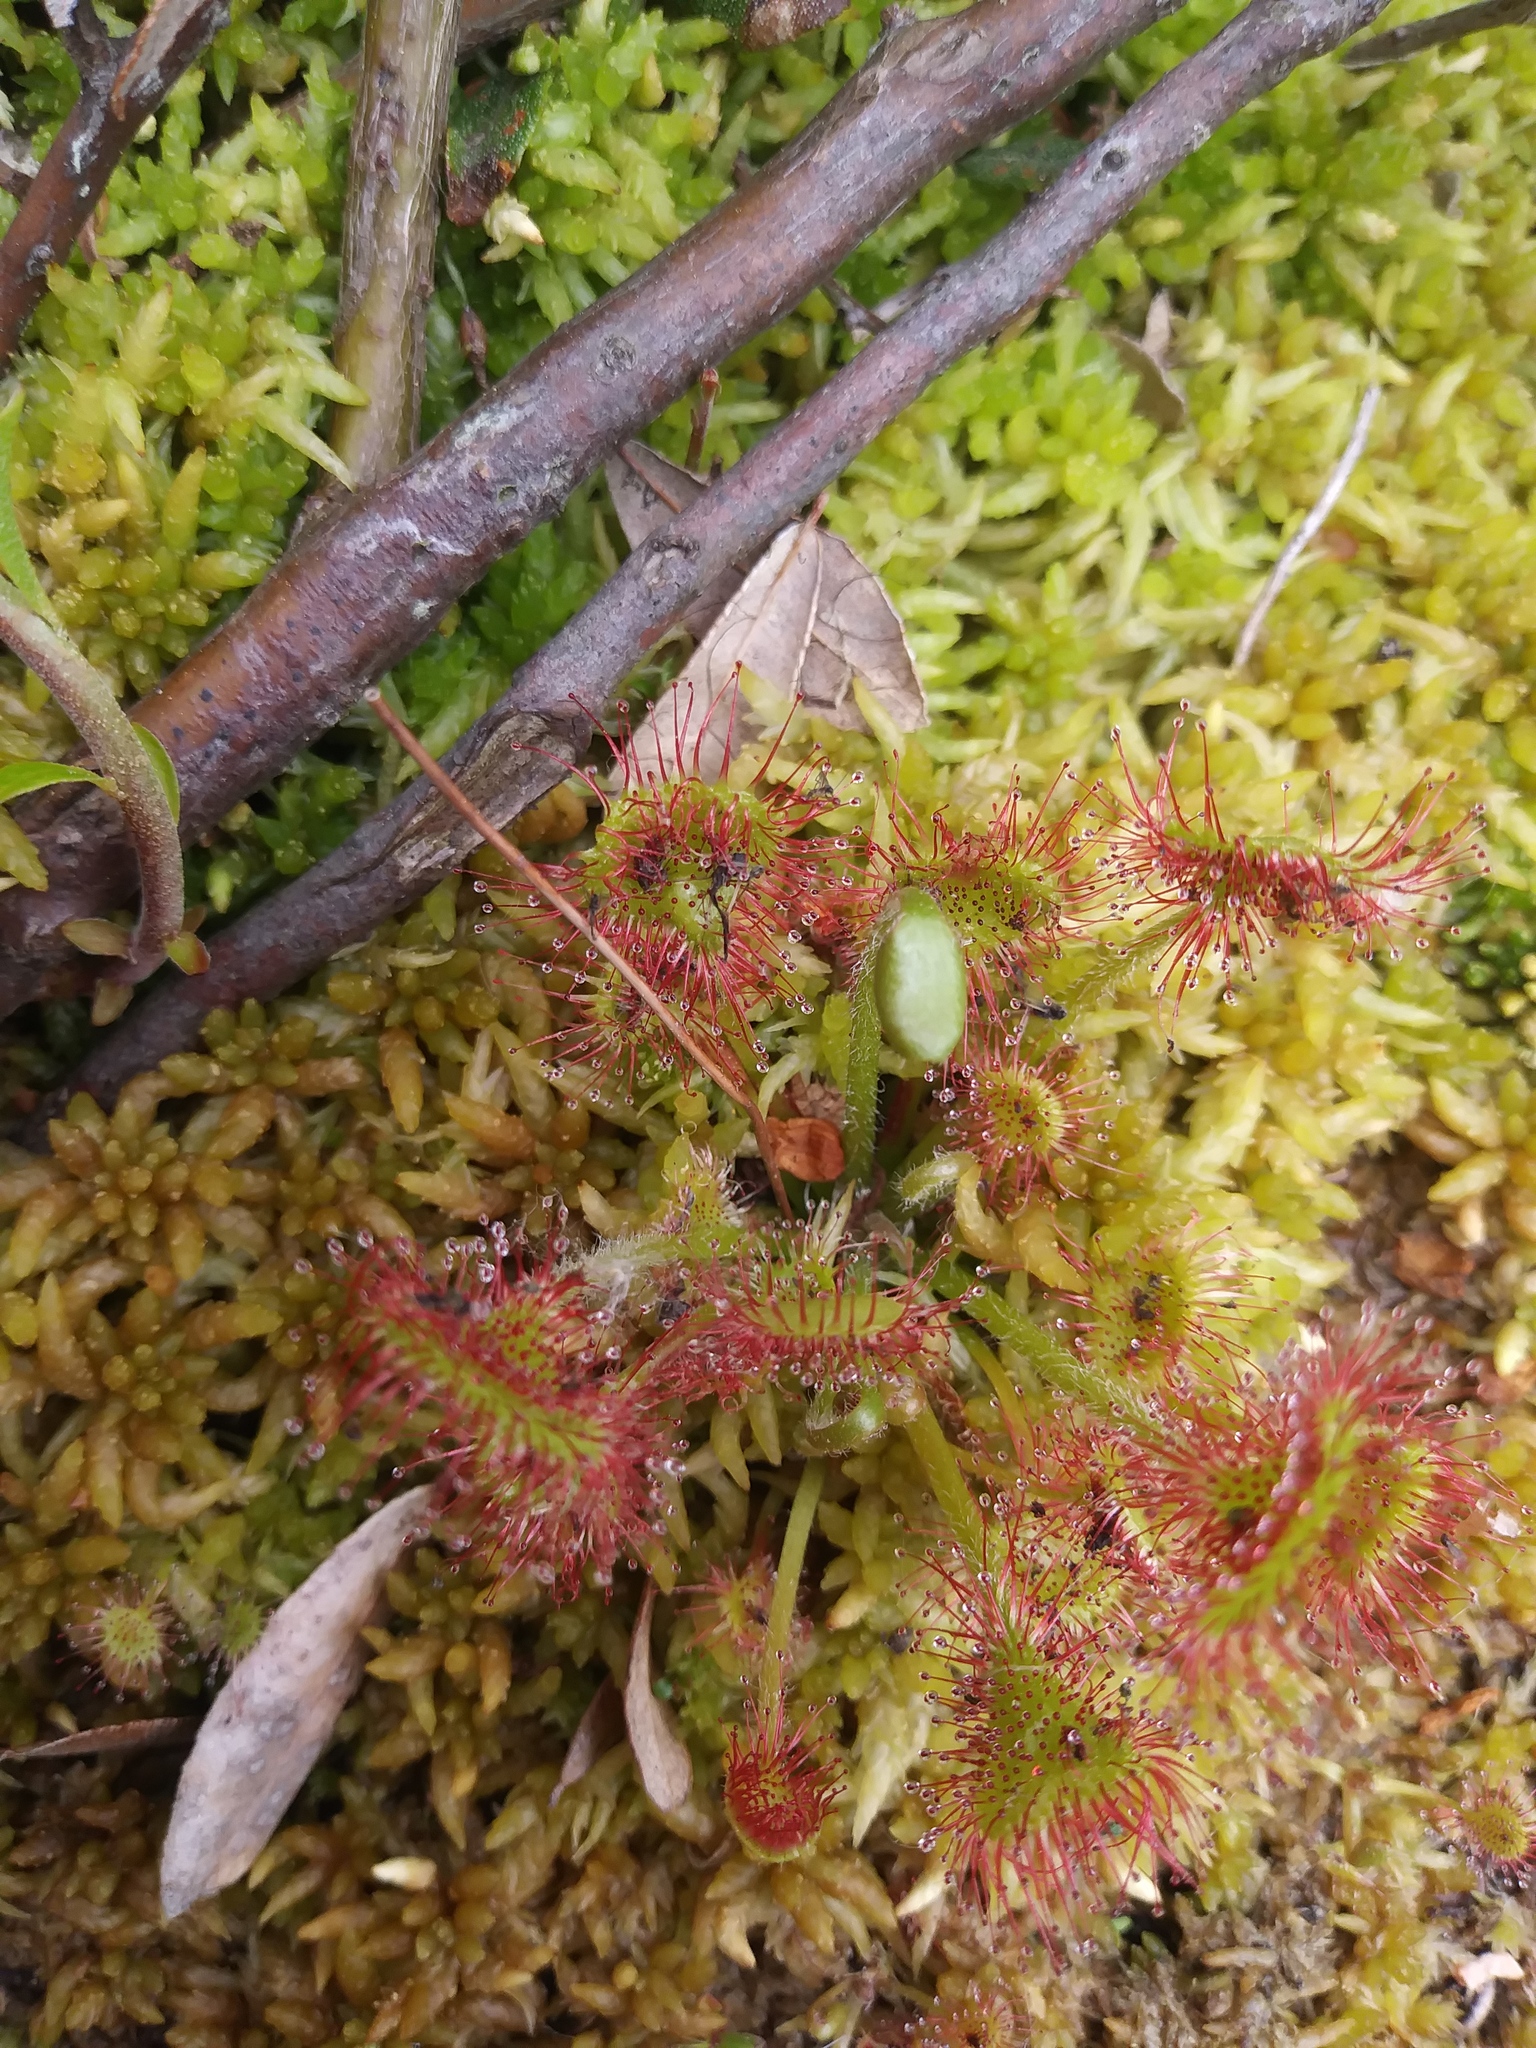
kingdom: Plantae
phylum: Tracheophyta
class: Magnoliopsida
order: Caryophyllales
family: Droseraceae
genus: Drosera
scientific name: Drosera rotundifolia
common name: Round-leaved sundew
